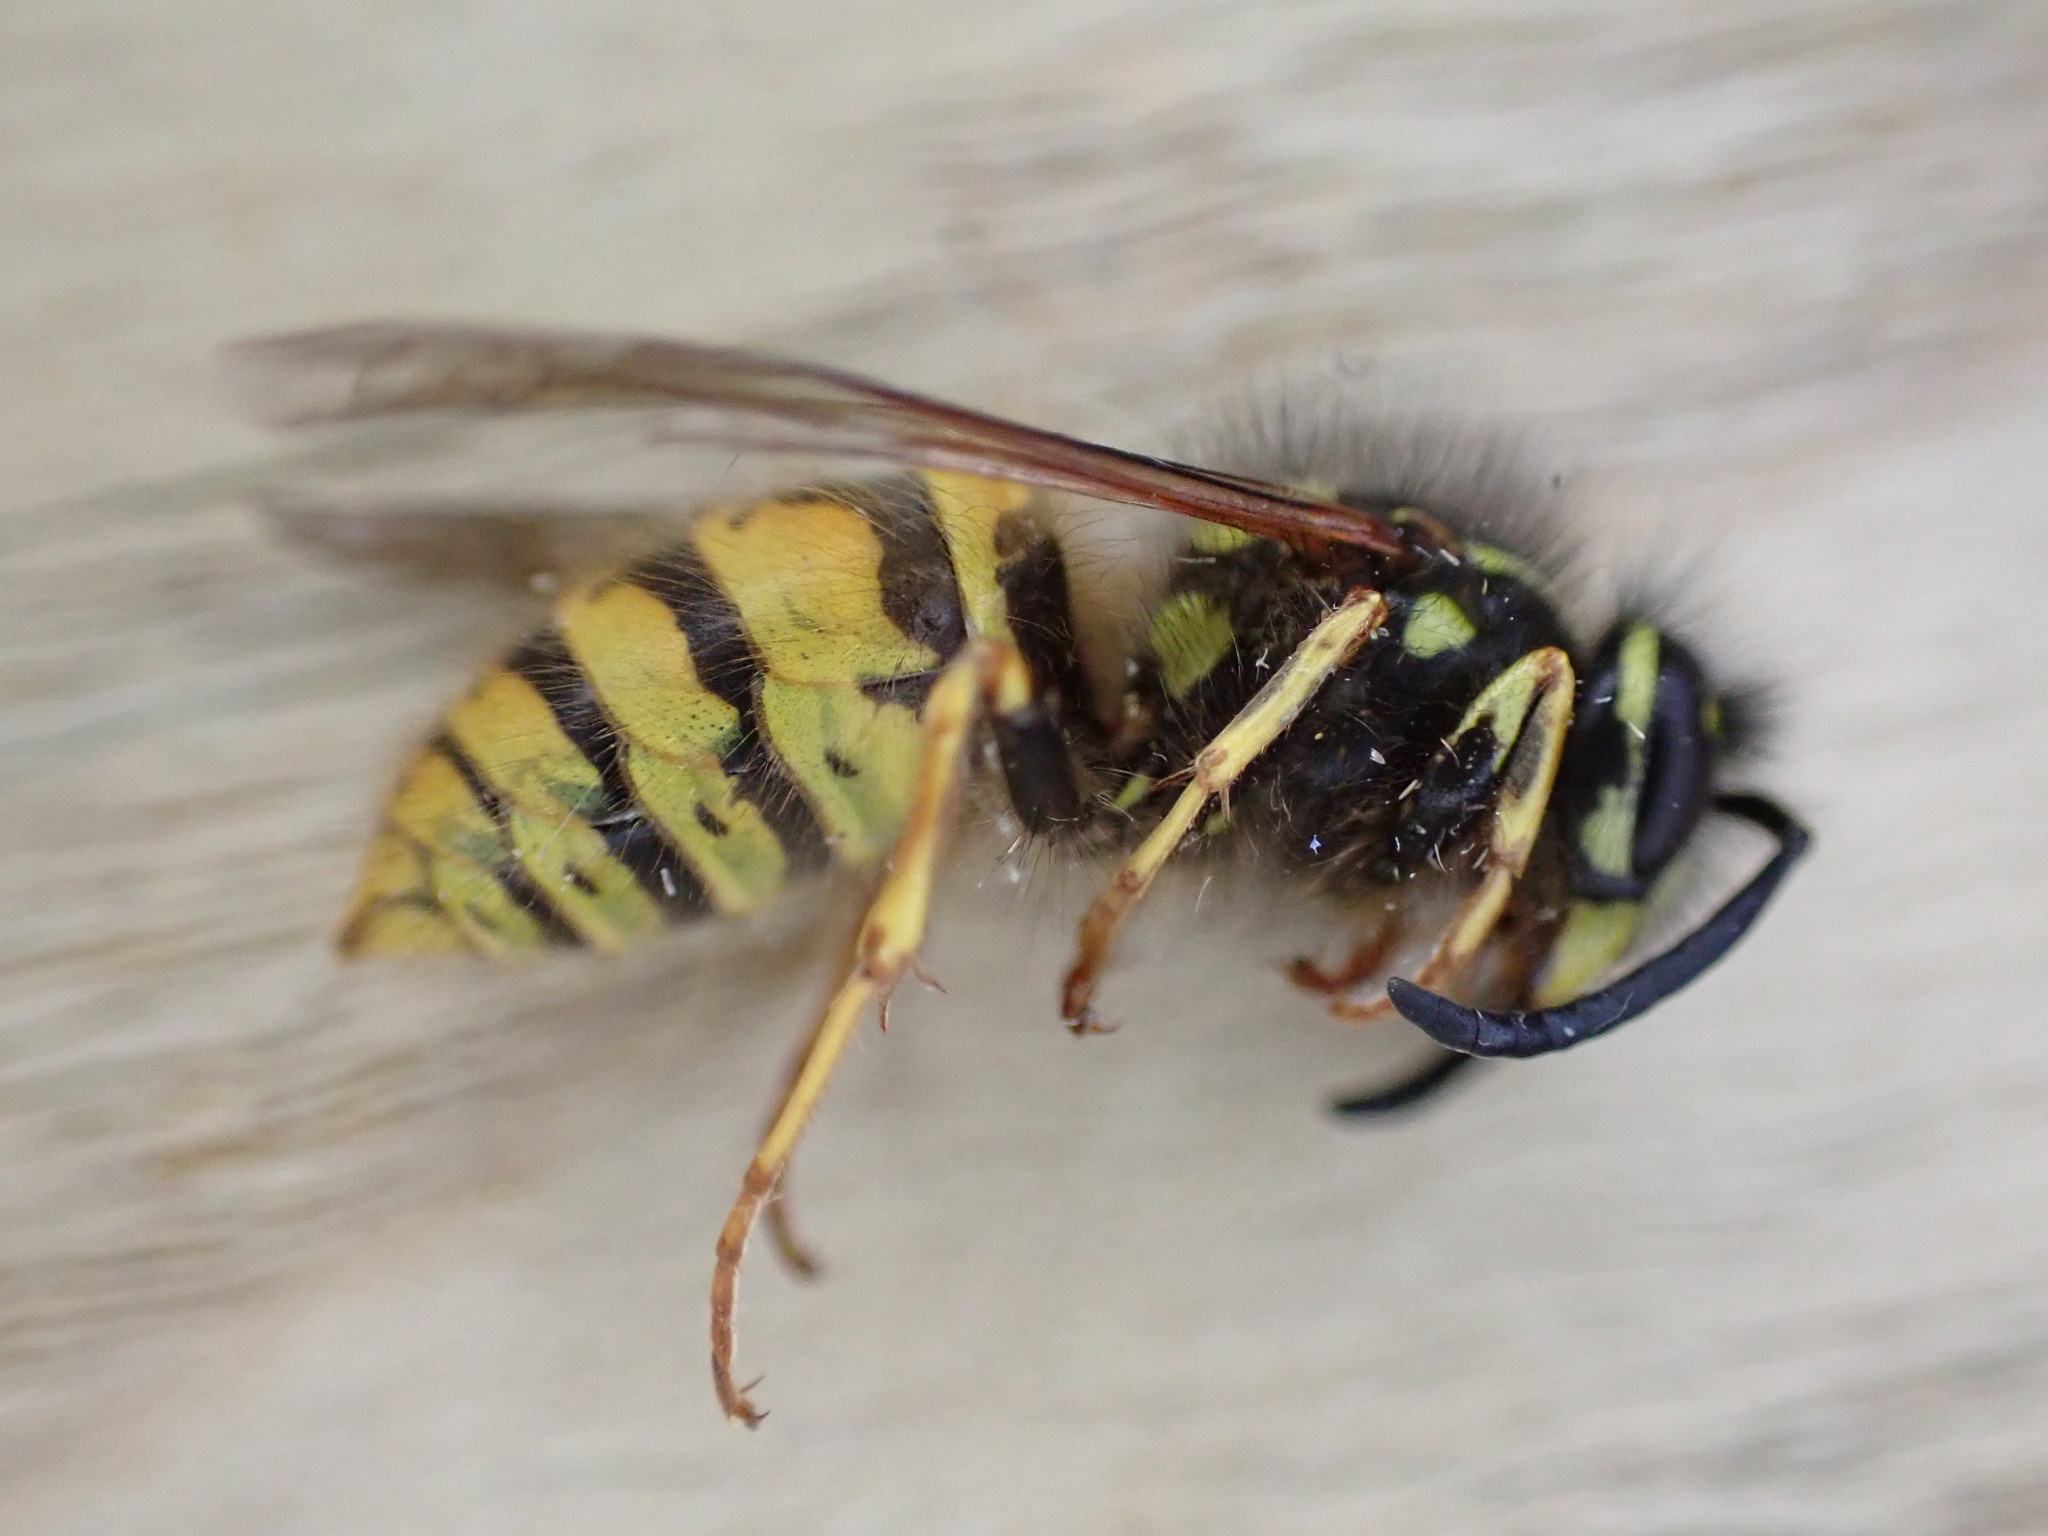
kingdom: Animalia
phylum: Arthropoda
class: Insecta
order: Hymenoptera
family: Vespidae
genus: Vespula
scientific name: Vespula vulgaris
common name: Common wasp
